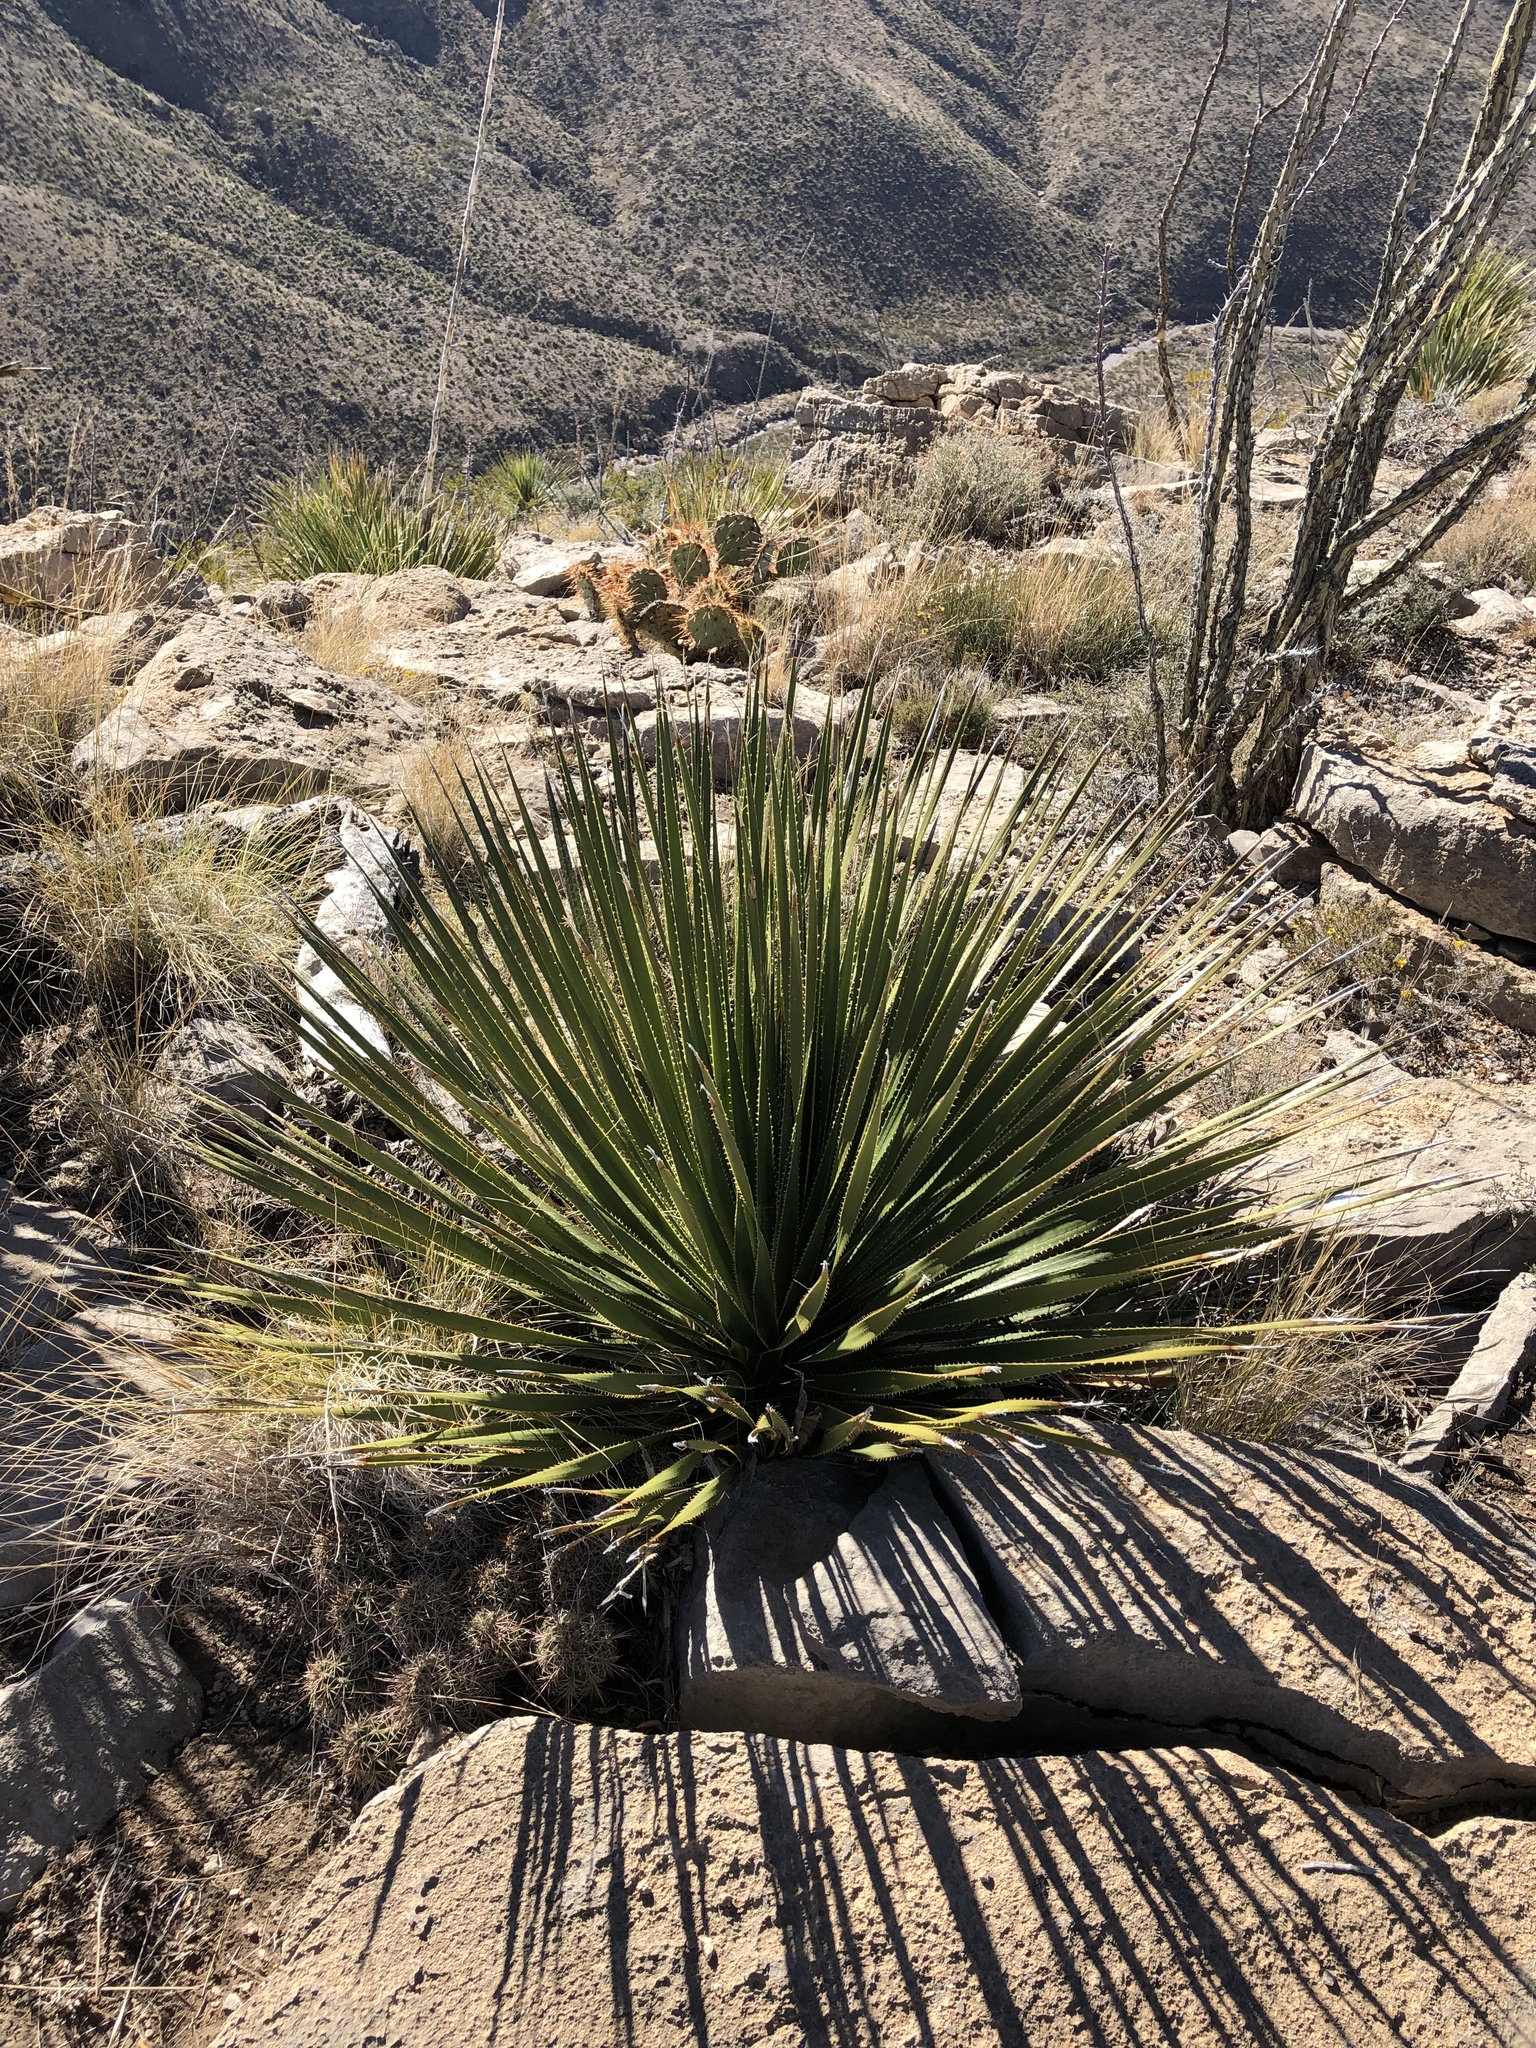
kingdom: Plantae
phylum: Tracheophyta
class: Liliopsida
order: Asparagales
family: Asparagaceae
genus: Dasylirion
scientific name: Dasylirion wheeleri
